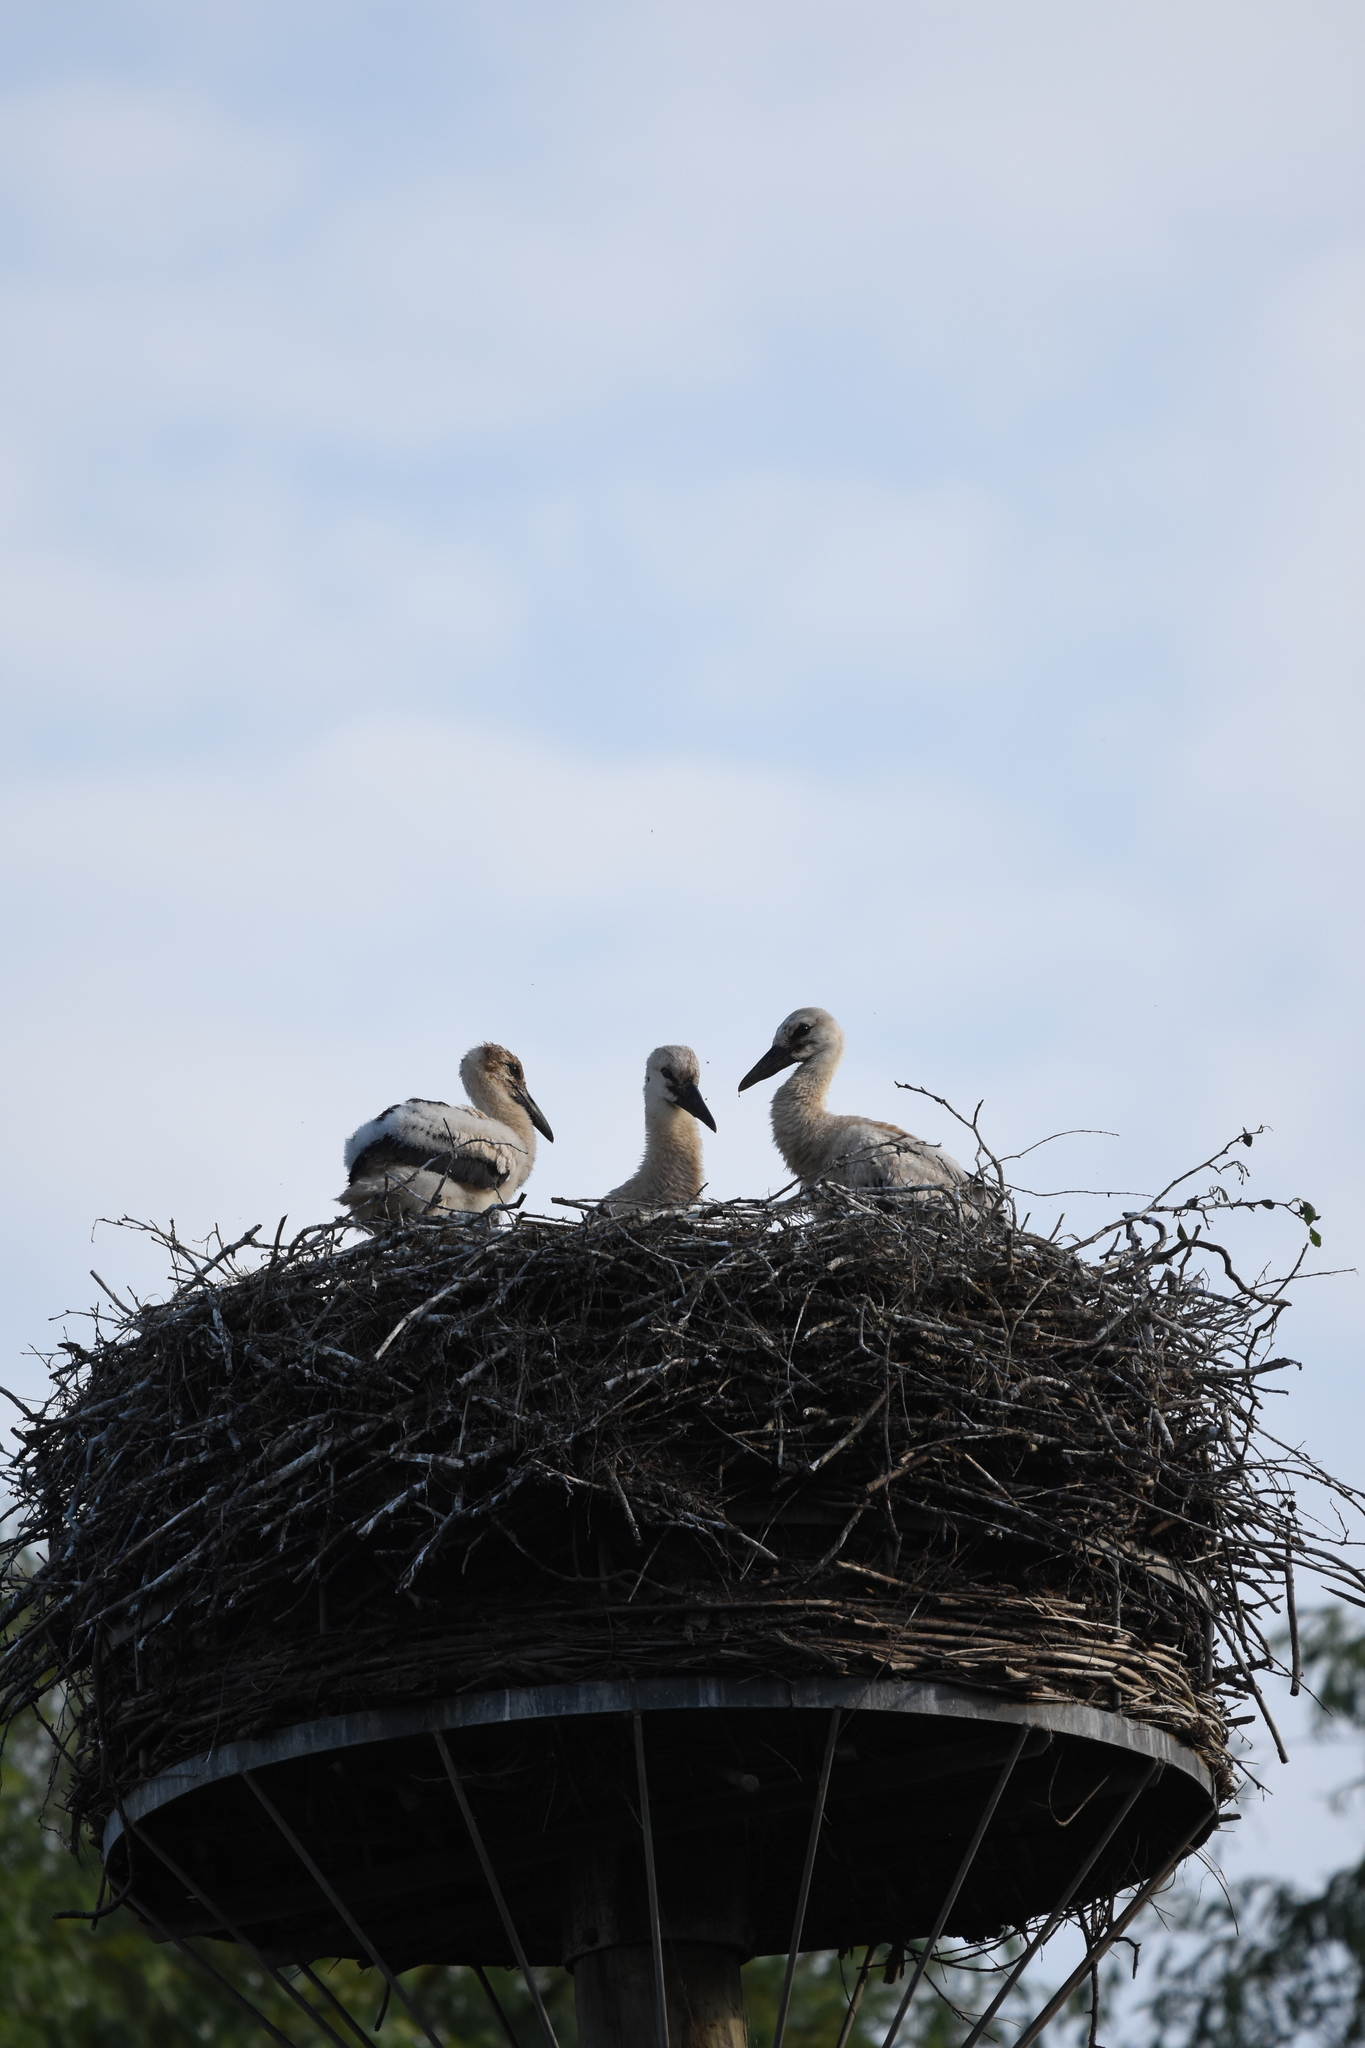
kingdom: Animalia
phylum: Chordata
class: Aves
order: Ciconiiformes
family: Ciconiidae
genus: Ciconia
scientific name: Ciconia ciconia
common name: White stork
